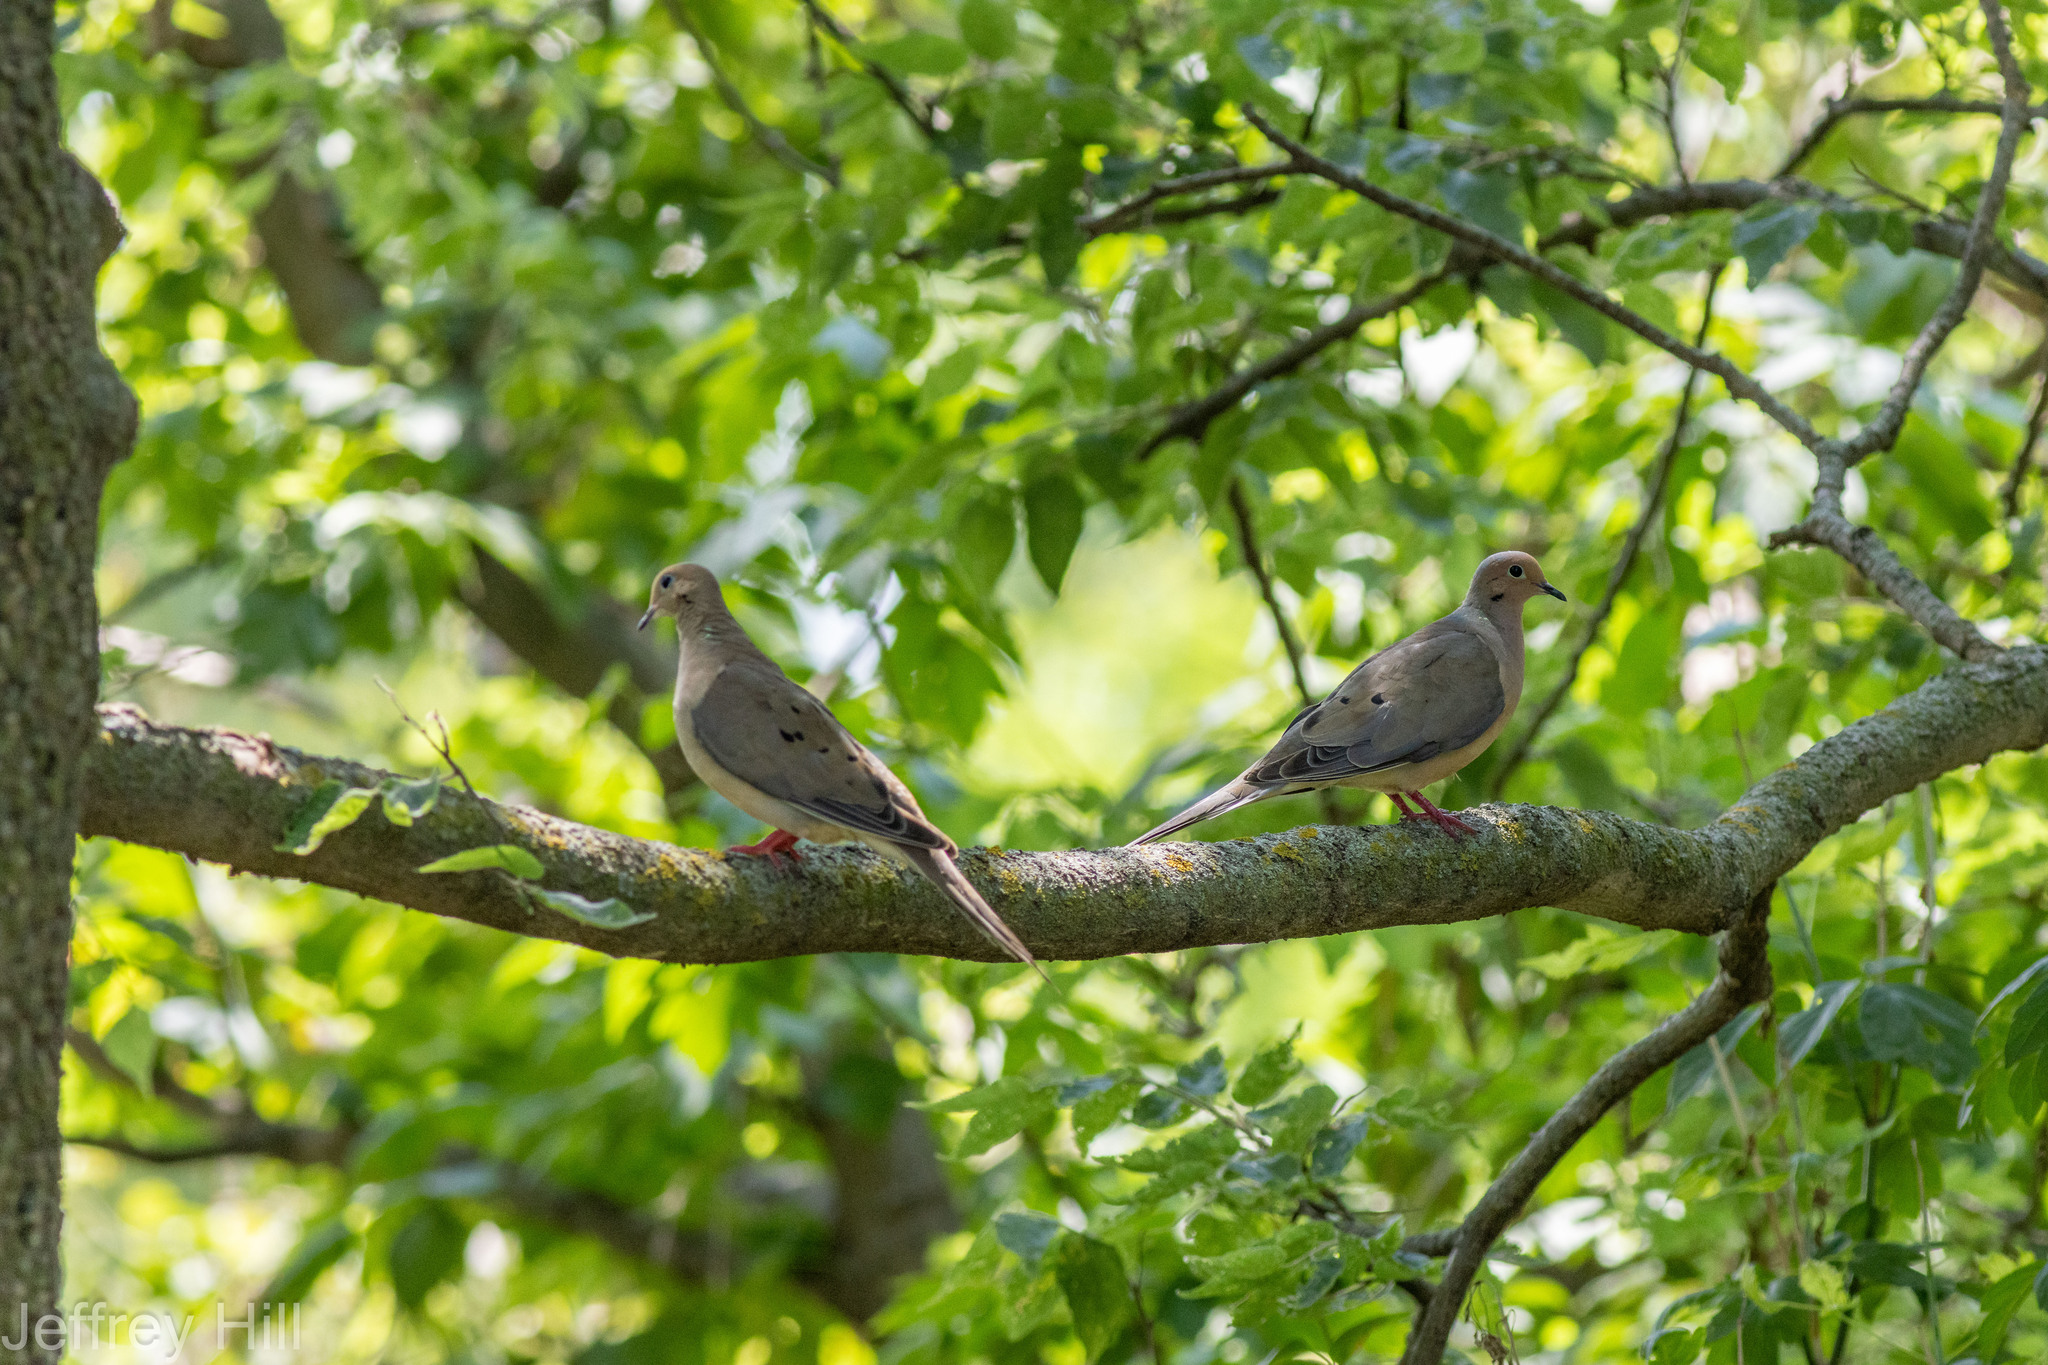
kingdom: Animalia
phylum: Chordata
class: Aves
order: Columbiformes
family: Columbidae
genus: Zenaida
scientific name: Zenaida macroura
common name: Mourning dove
